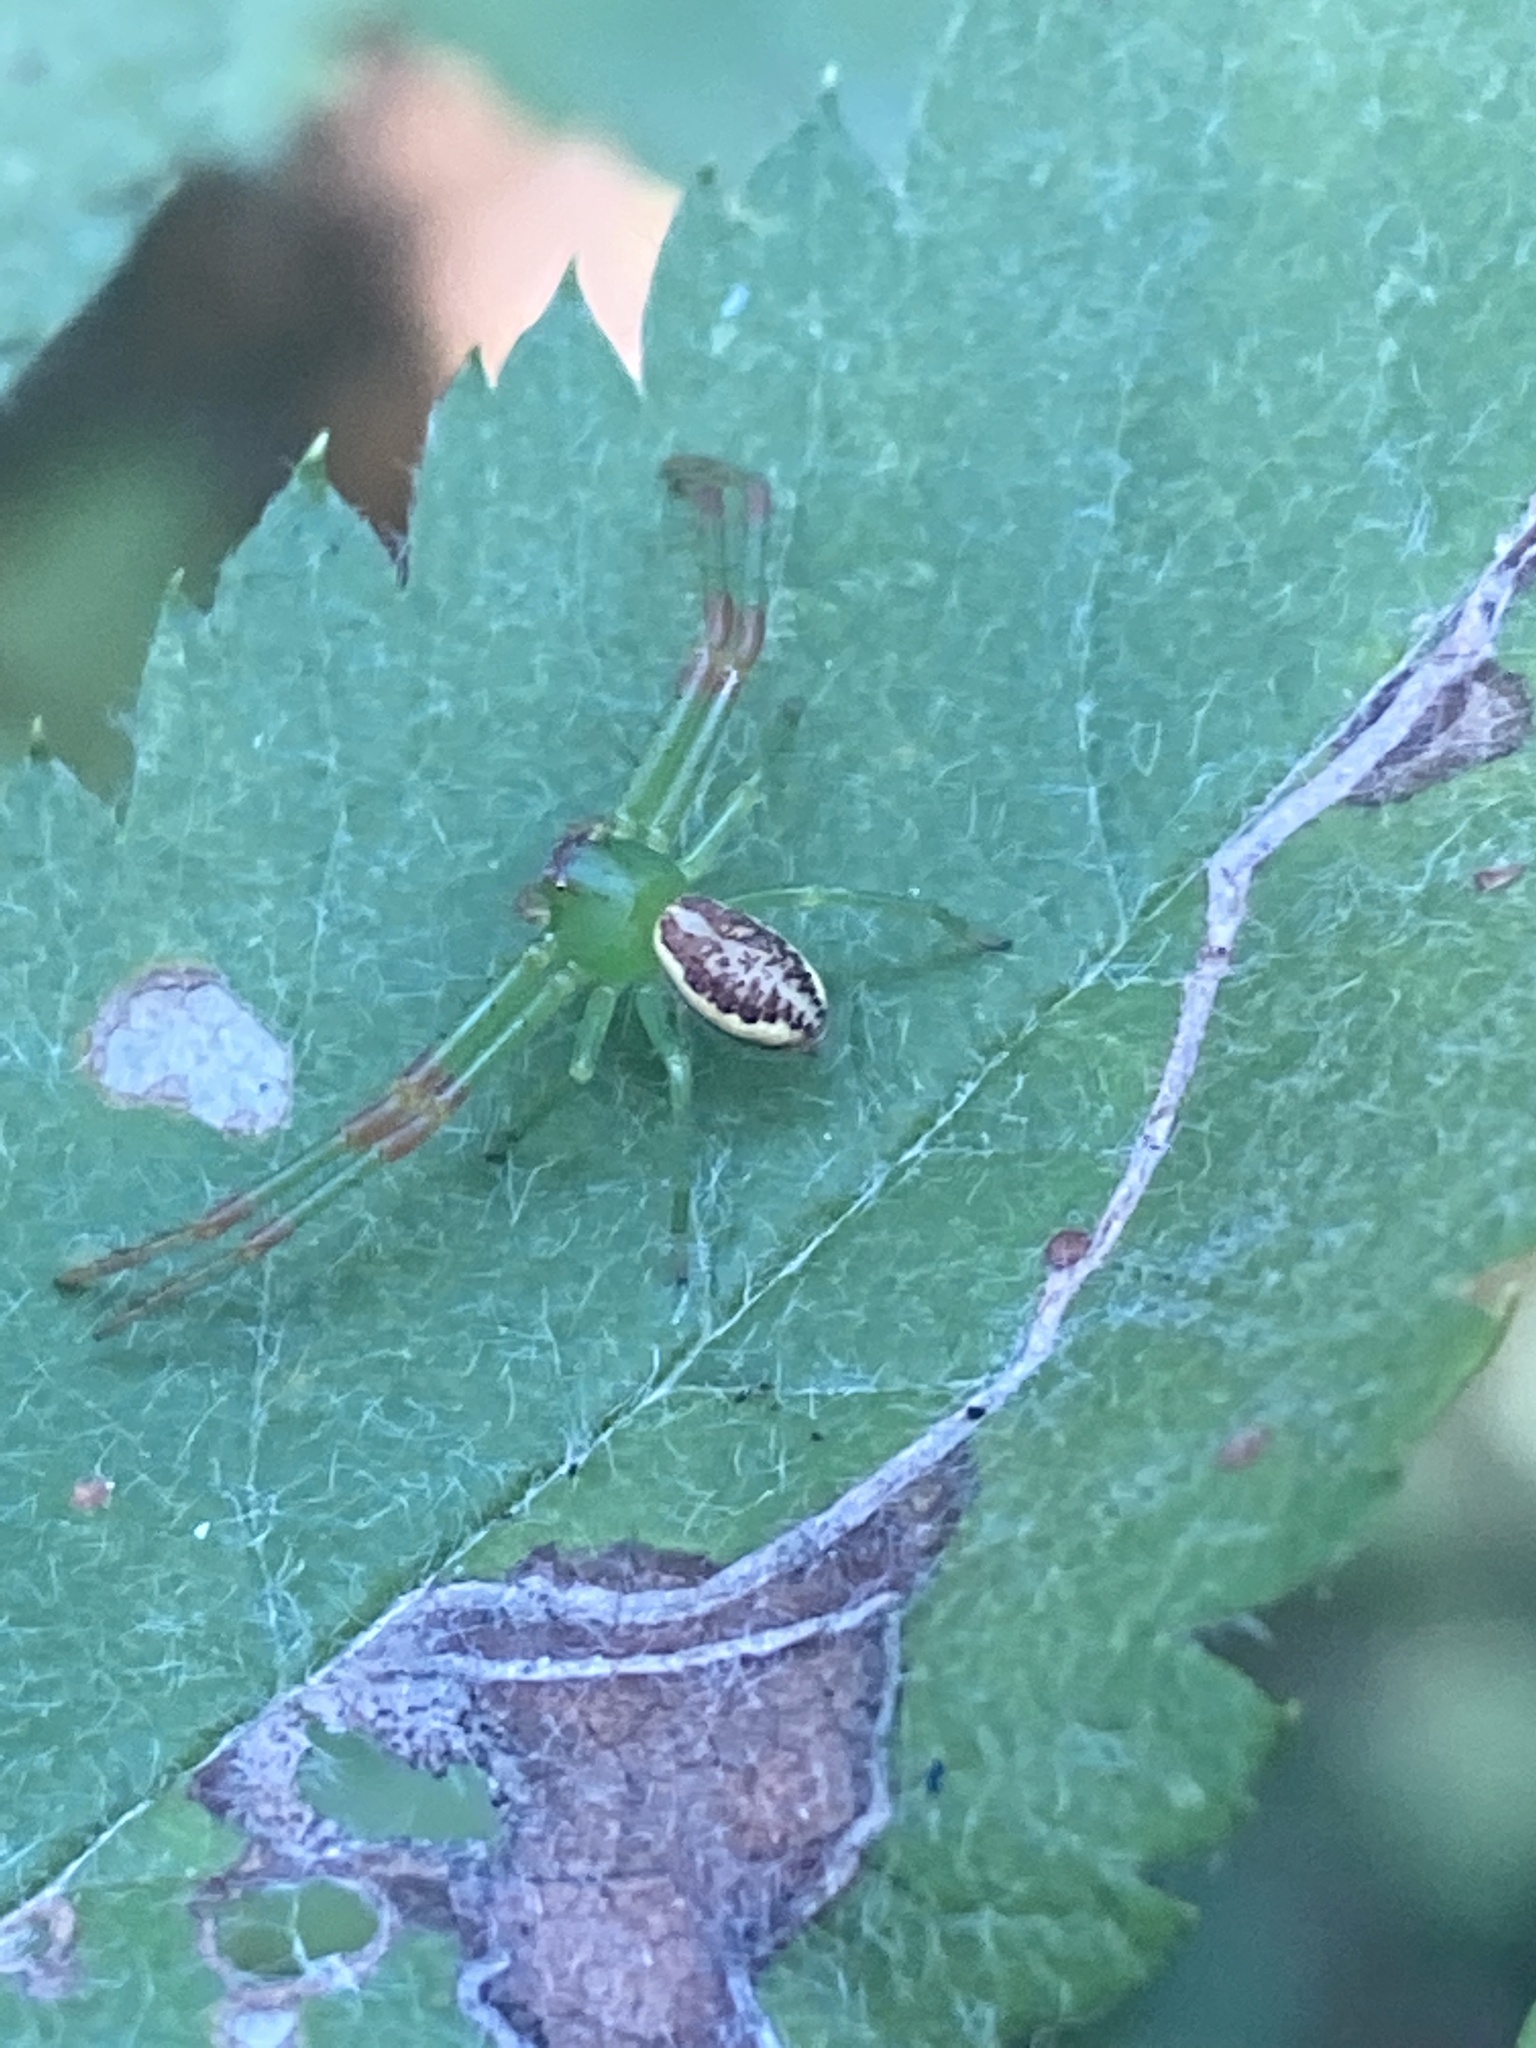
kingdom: Animalia
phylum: Arthropoda
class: Arachnida
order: Araneae
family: Thomisidae
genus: Diaea
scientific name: Diaea dorsata
